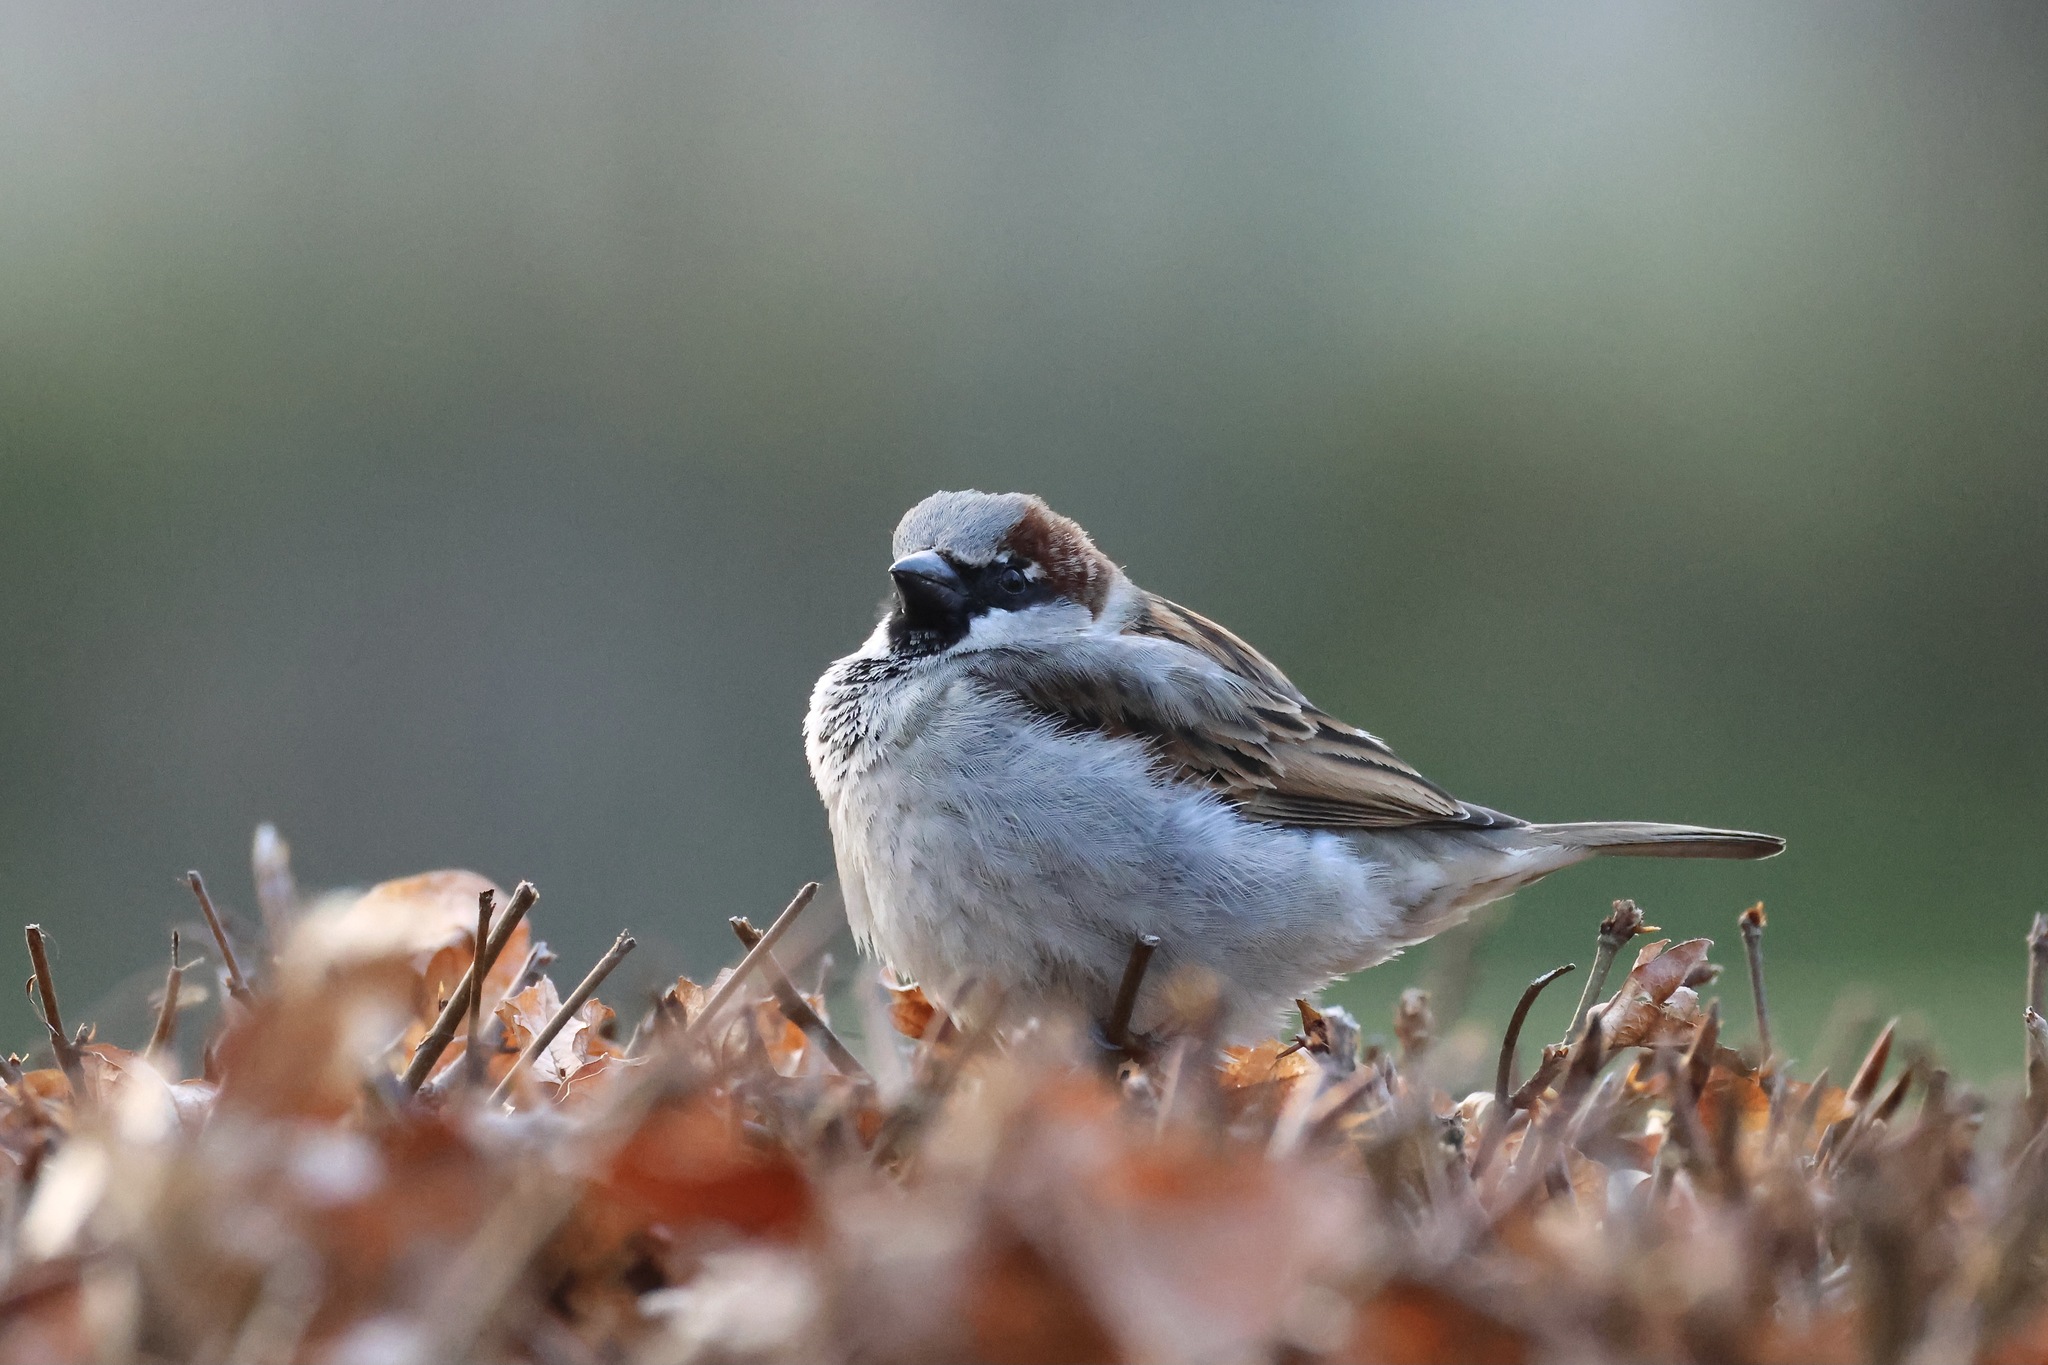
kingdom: Animalia
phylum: Chordata
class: Aves
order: Passeriformes
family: Passeridae
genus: Passer
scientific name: Passer domesticus
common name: House sparrow
